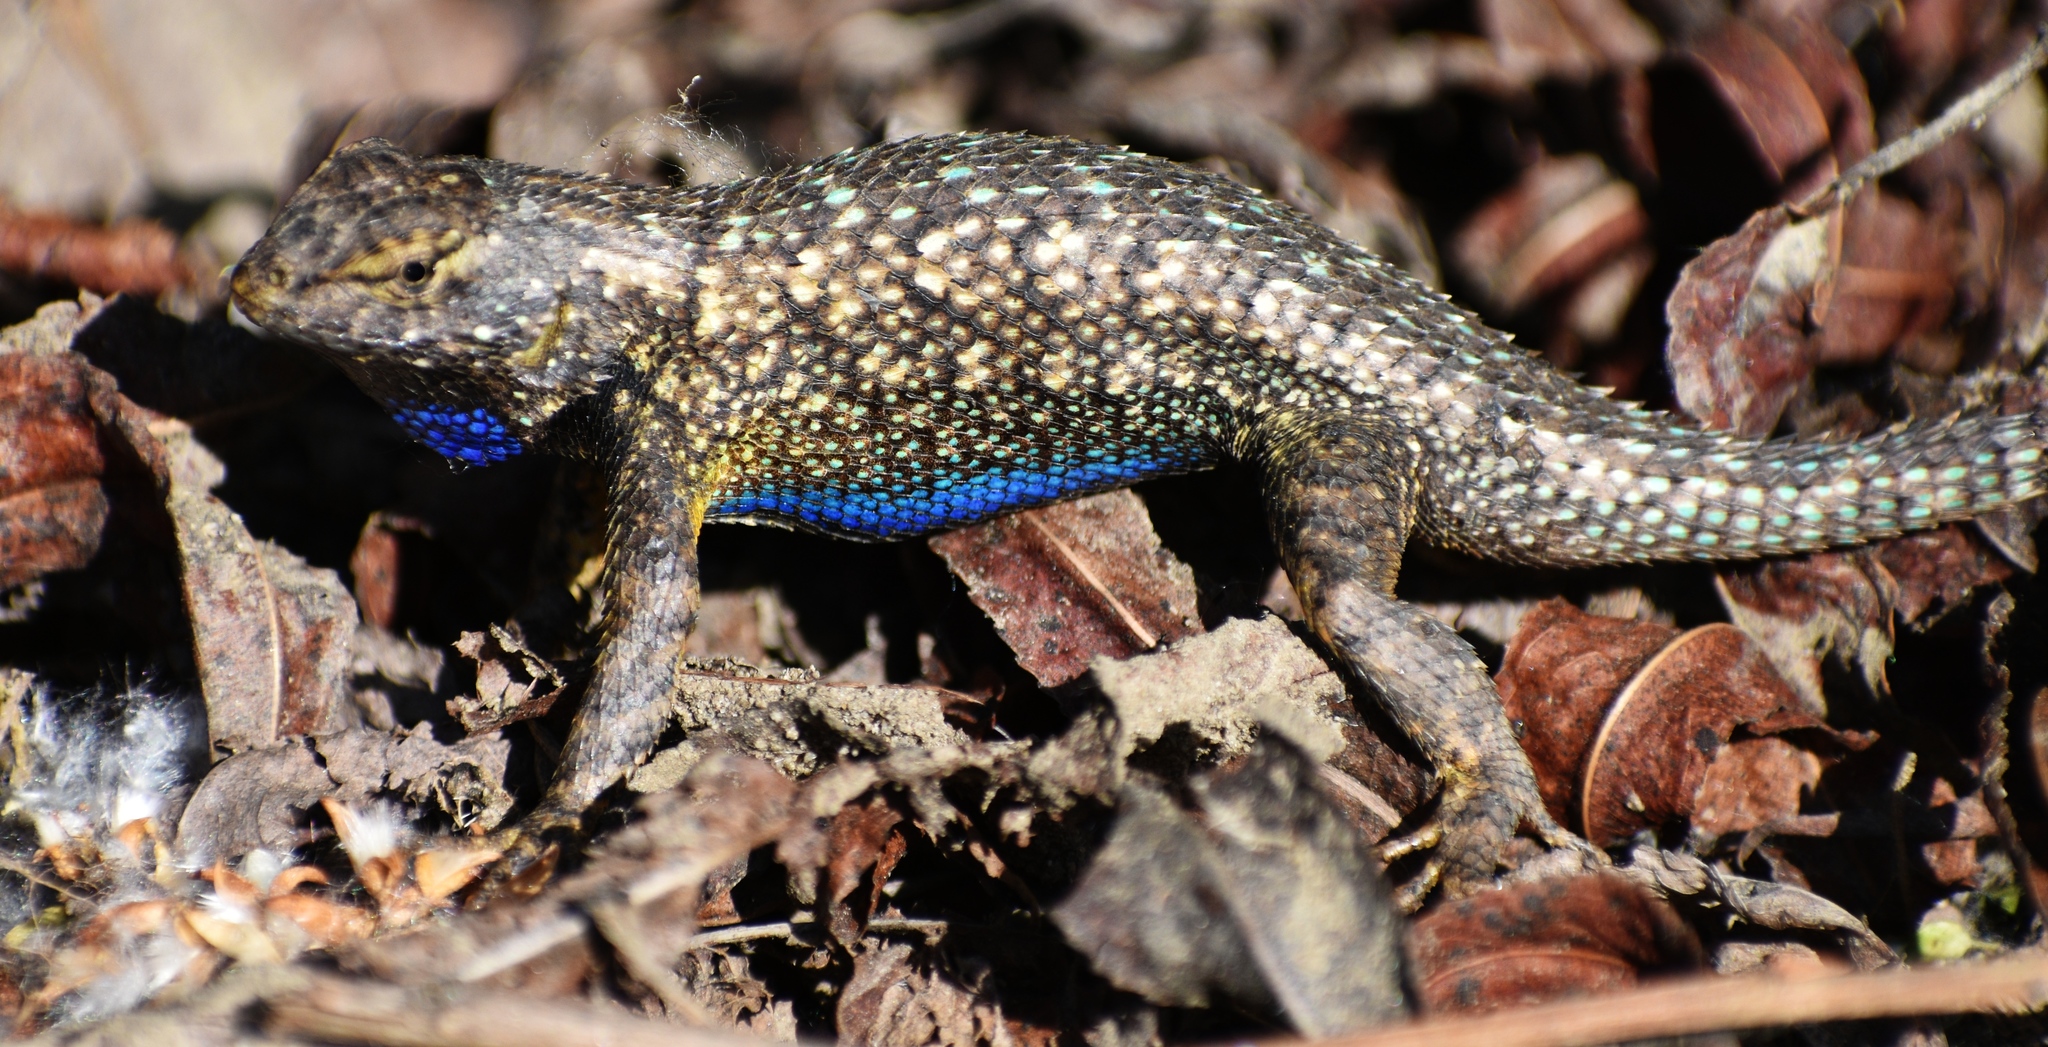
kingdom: Animalia
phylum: Chordata
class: Squamata
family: Phrynosomatidae
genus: Sceloporus
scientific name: Sceloporus occidentalis
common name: Western fence lizard
